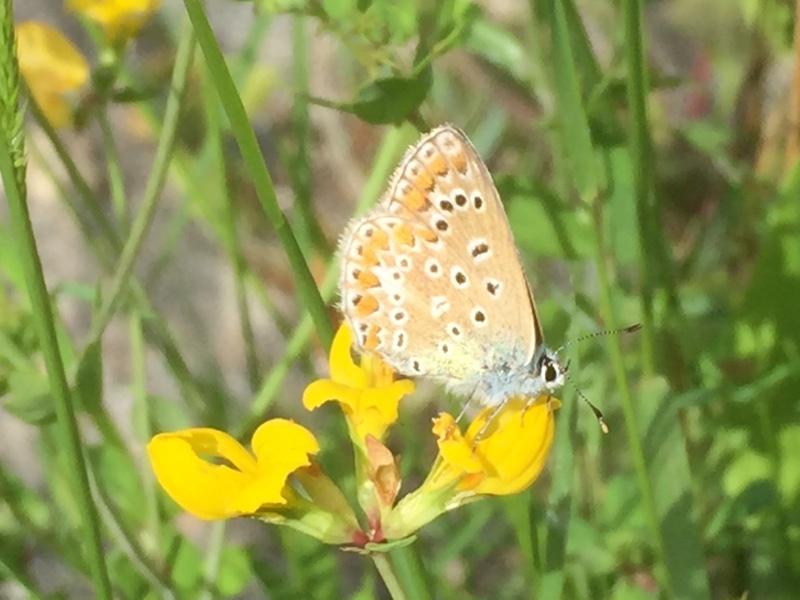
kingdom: Animalia
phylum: Arthropoda
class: Insecta
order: Lepidoptera
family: Lycaenidae
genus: Polyommatus
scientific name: Polyommatus icarus
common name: Common blue
